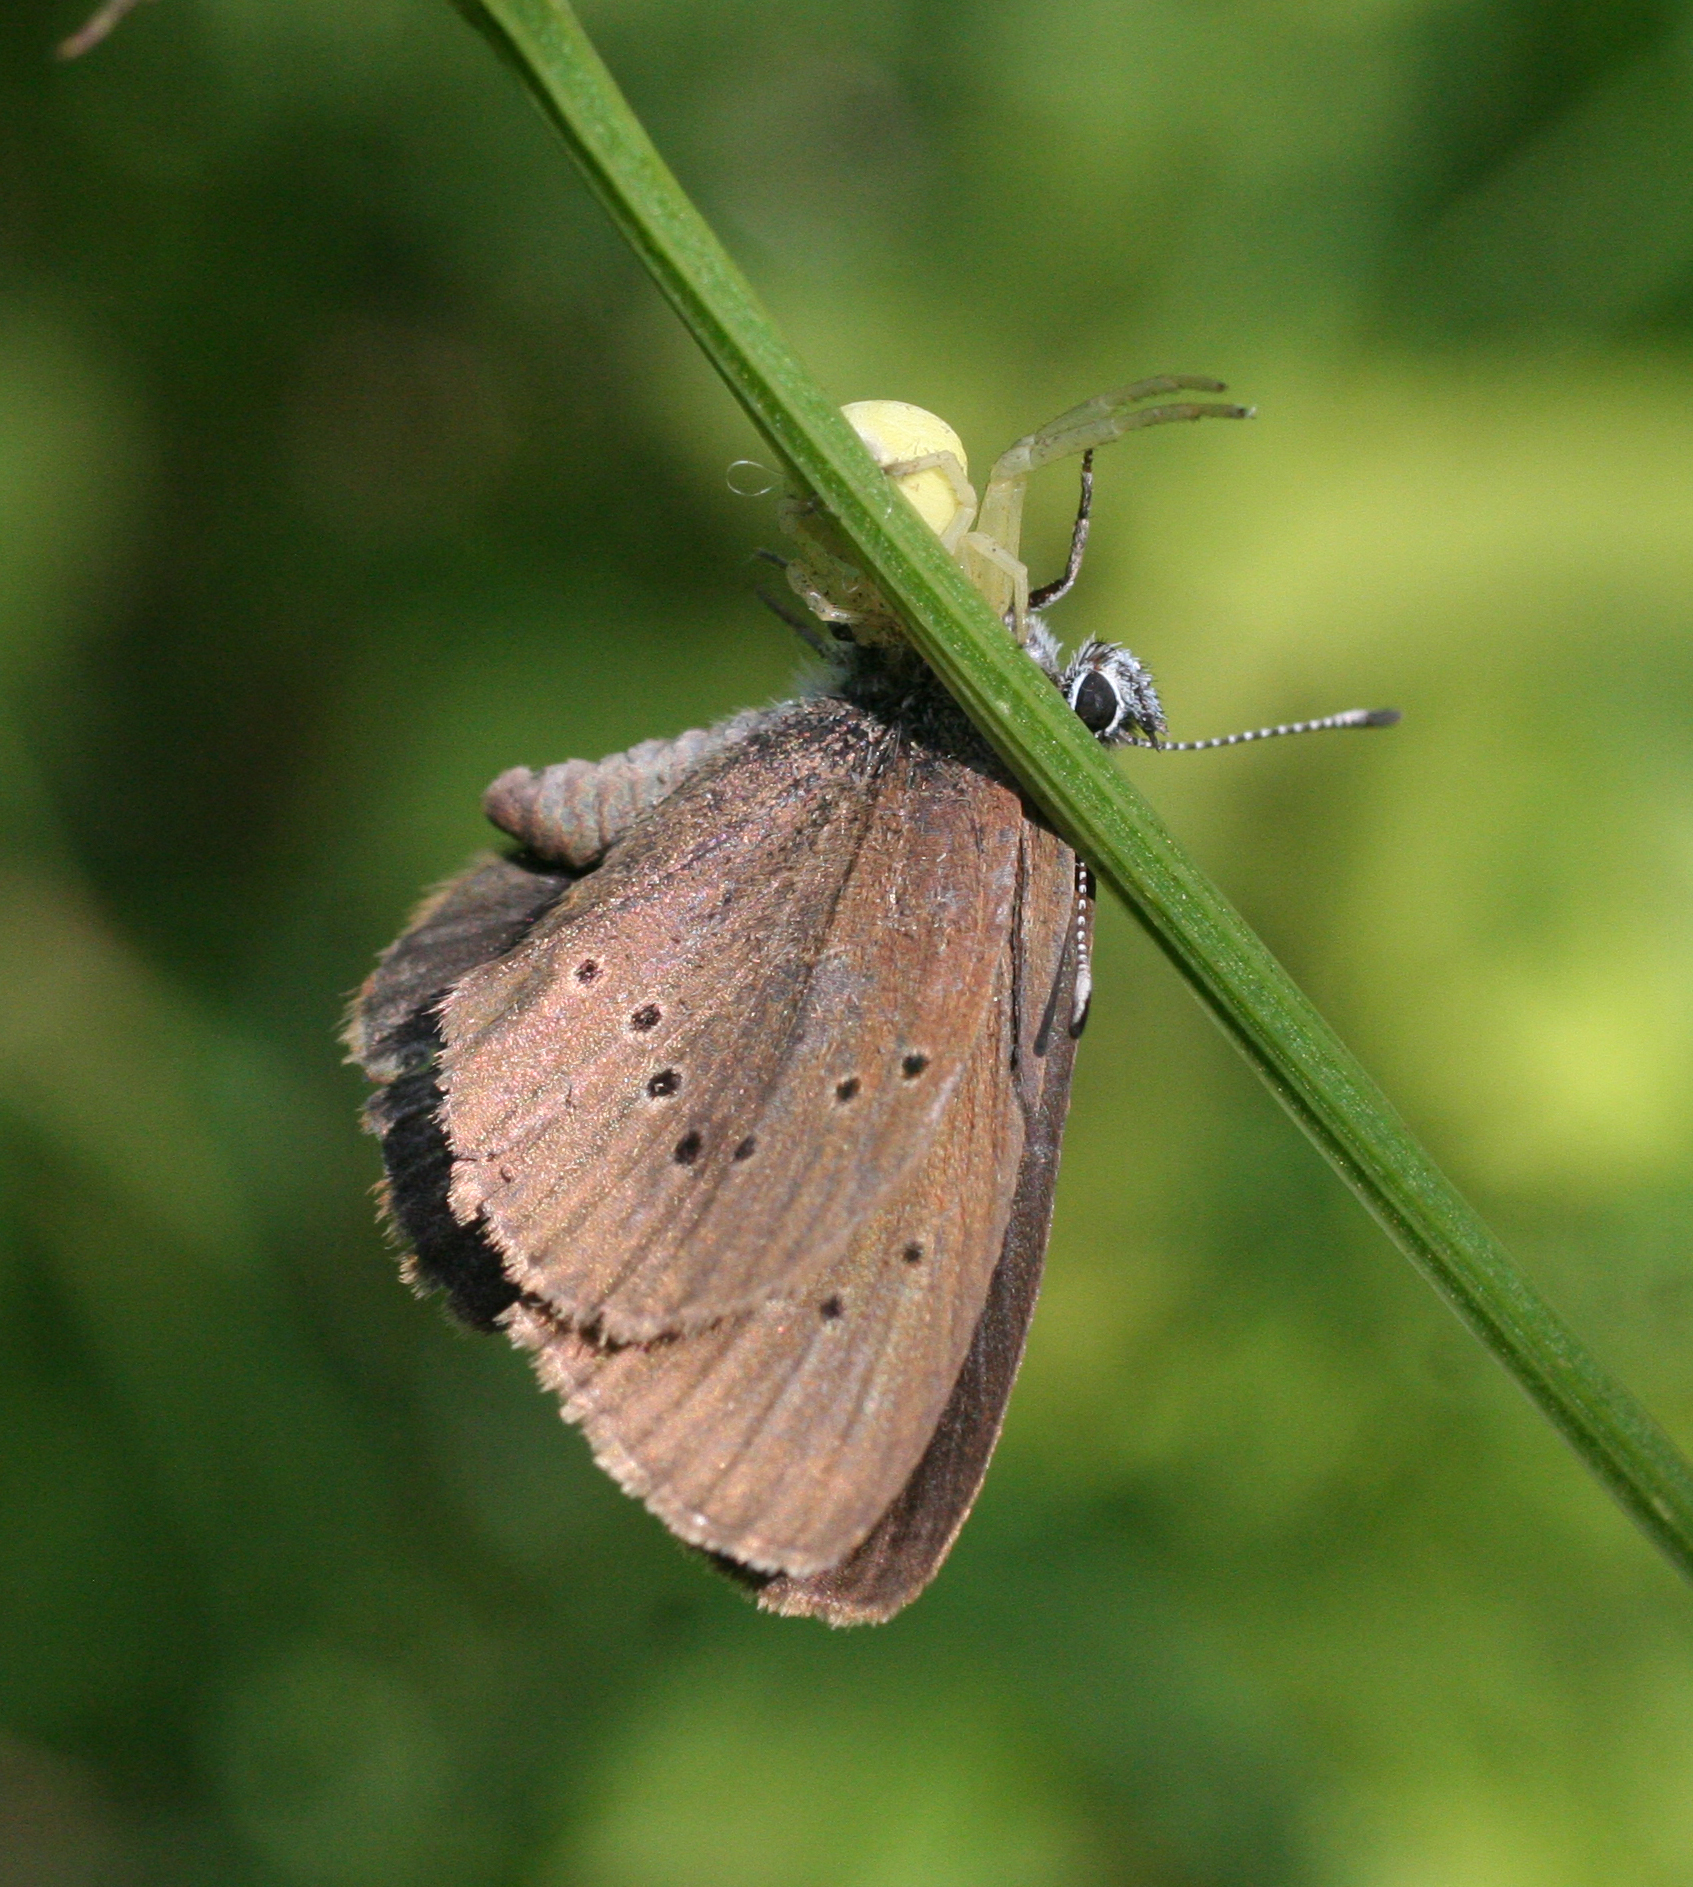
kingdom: Animalia
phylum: Arthropoda
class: Insecta
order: Lepidoptera
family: Lycaenidae
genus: Maculinea
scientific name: Maculinea nausithous
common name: Dusky large blue
